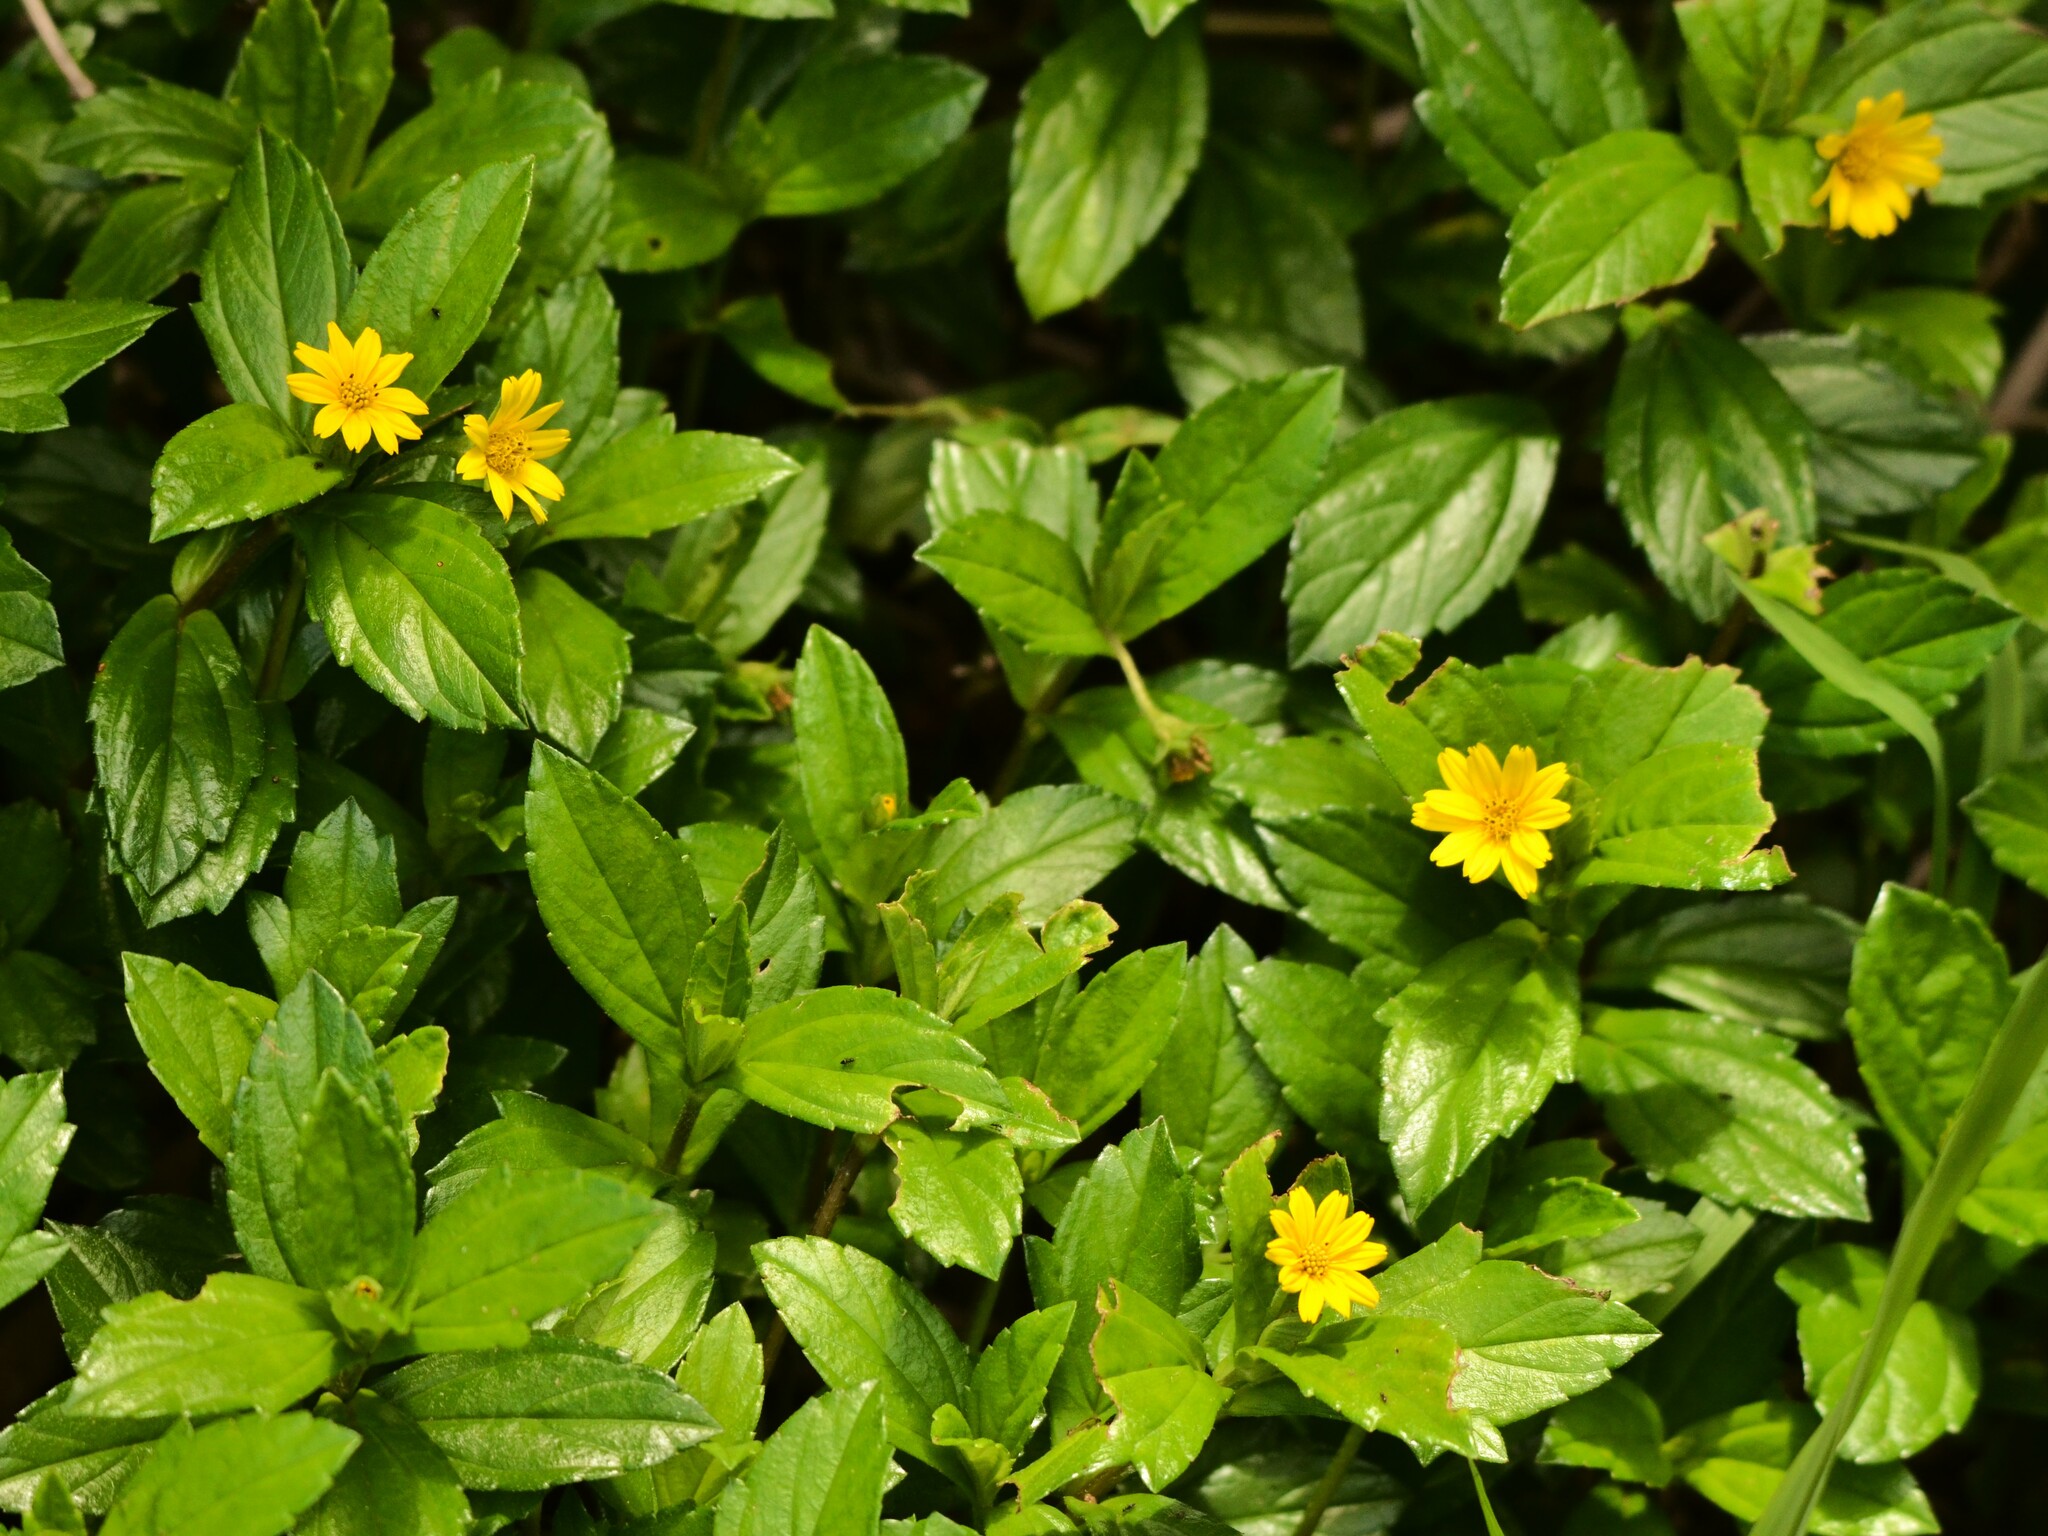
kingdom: Plantae
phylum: Tracheophyta
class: Magnoliopsida
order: Asterales
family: Asteraceae
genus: Sphagneticola
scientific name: Sphagneticola trilobata
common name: Bay biscayne creeping-oxeye
